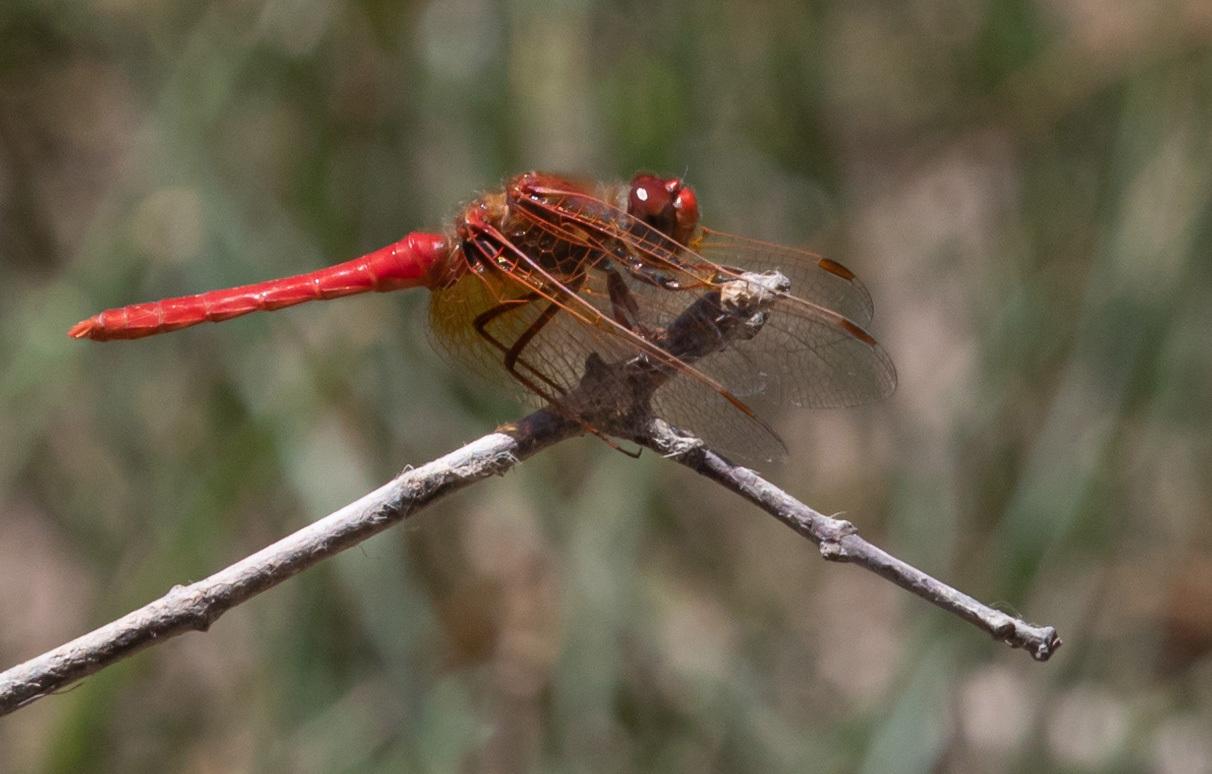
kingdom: Animalia
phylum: Arthropoda
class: Insecta
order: Odonata
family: Libellulidae
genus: Sympetrum
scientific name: Sympetrum illotum
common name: Cardinal meadowhawk
